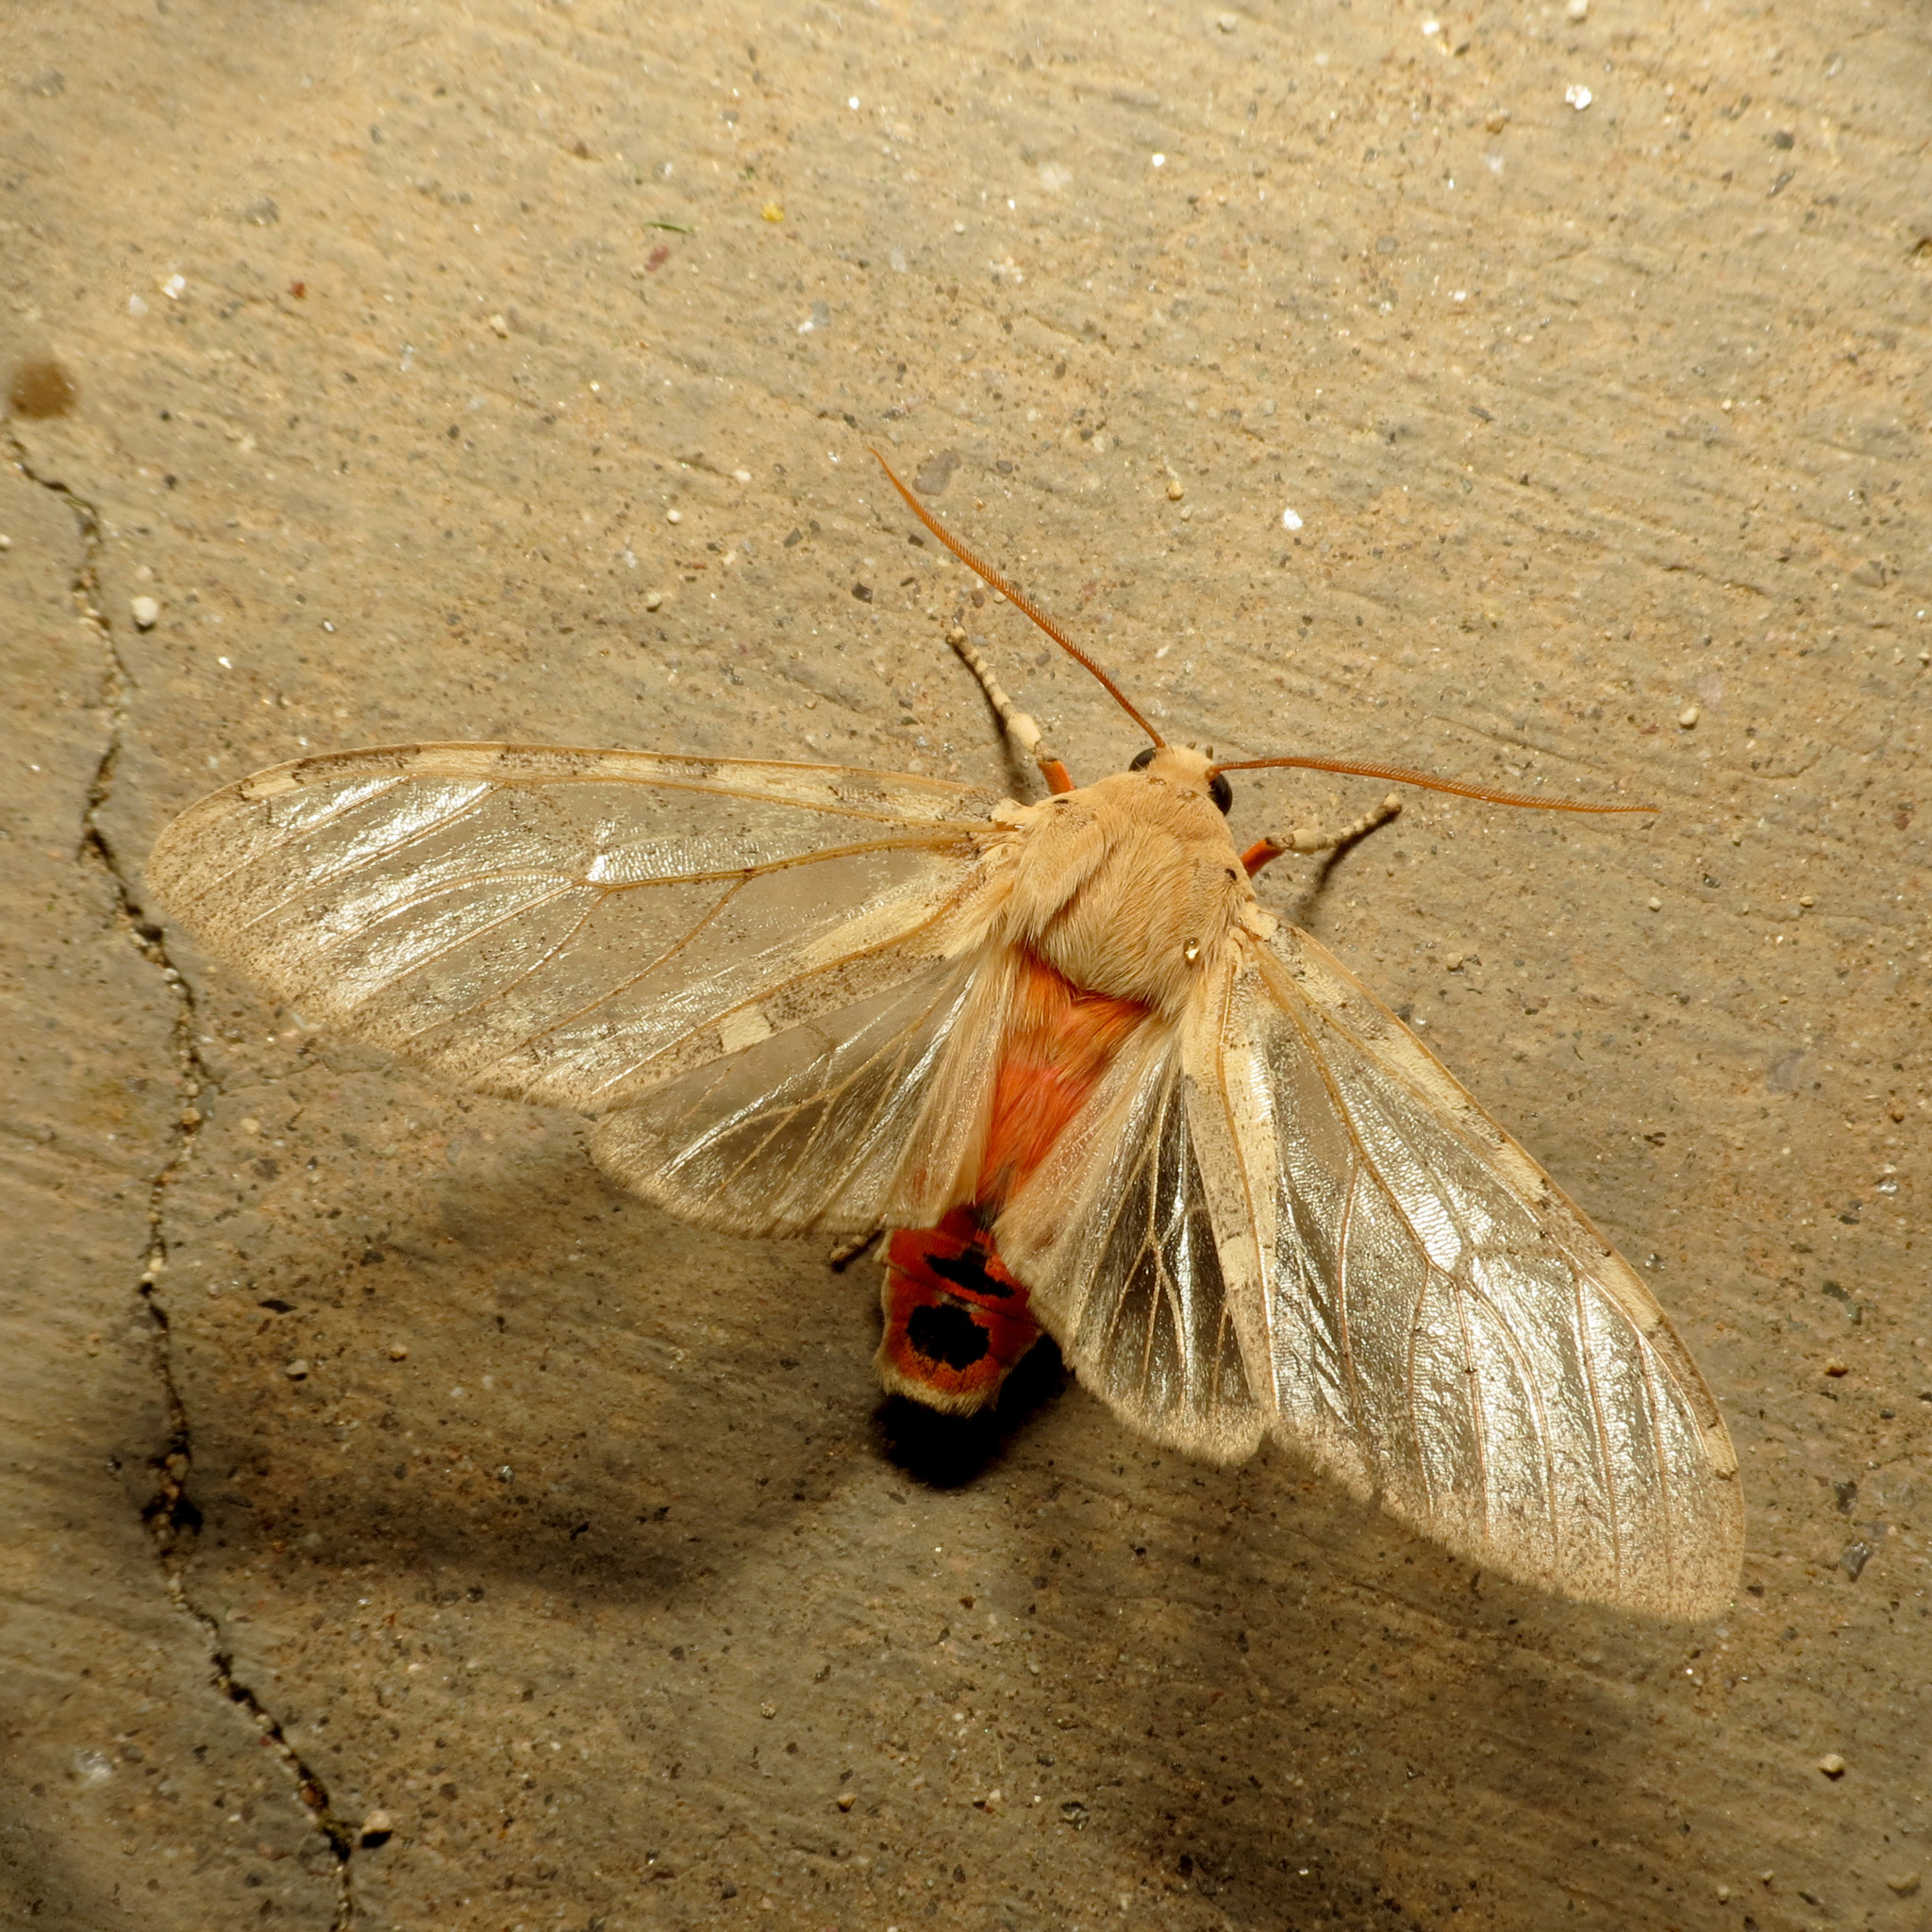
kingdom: Animalia
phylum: Arthropoda
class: Insecta
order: Lepidoptera
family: Erebidae
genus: Hemihyalea
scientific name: Hemihyalea edwardsii
